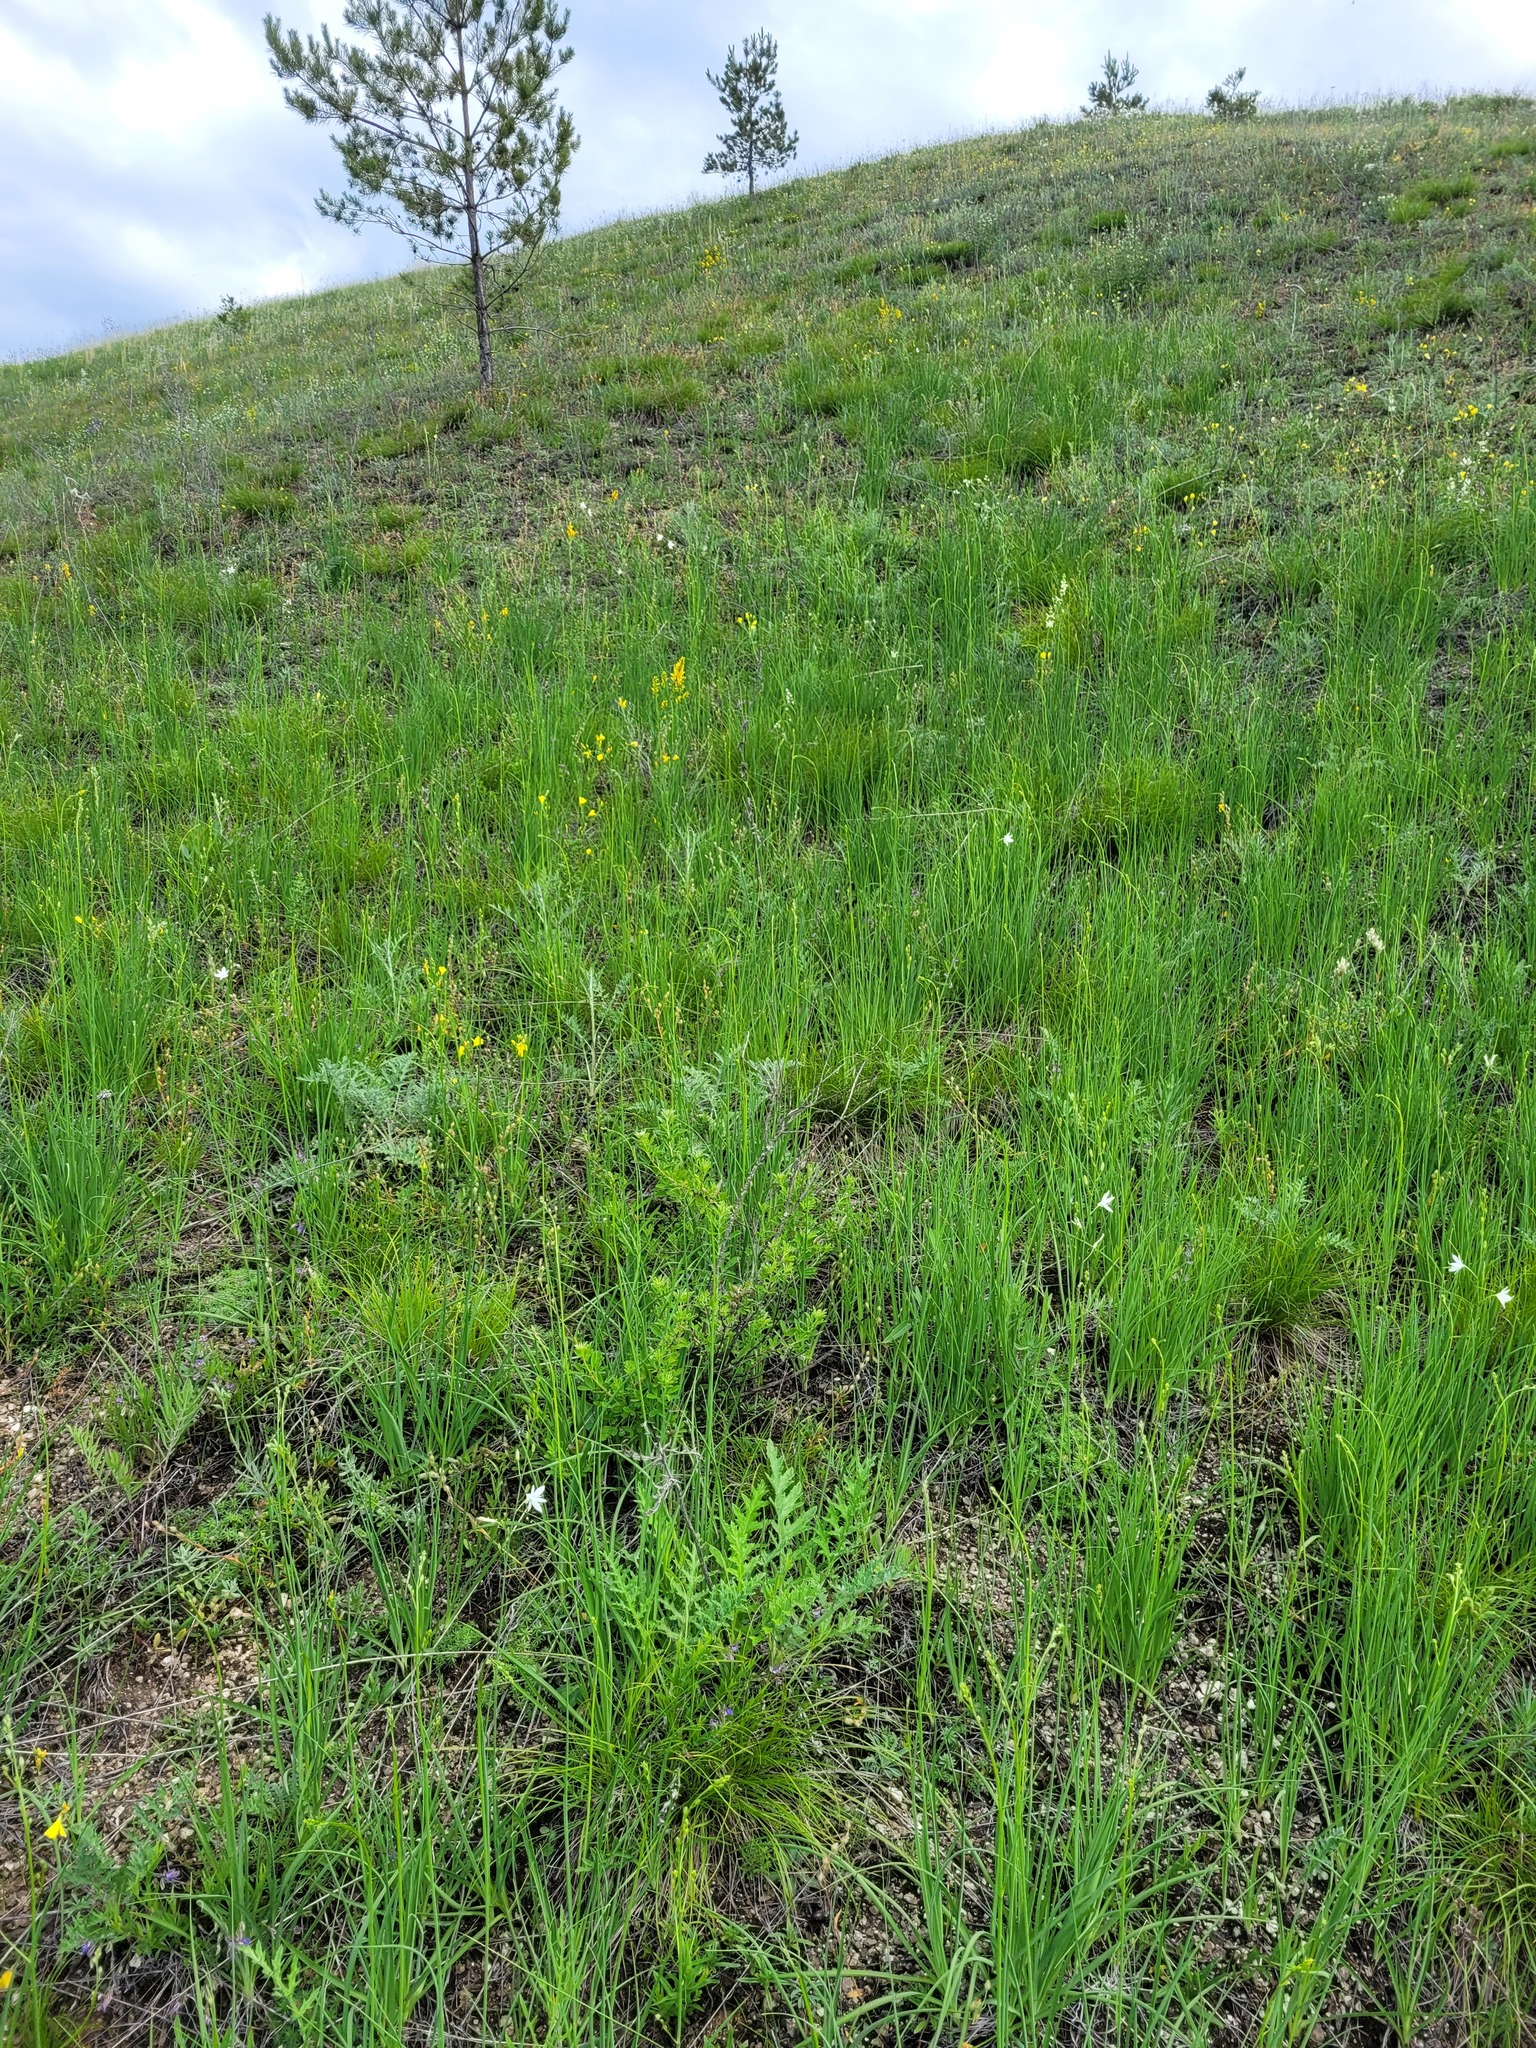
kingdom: Plantae
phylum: Tracheophyta
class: Liliopsida
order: Asparagales
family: Asparagaceae
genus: Anthericum
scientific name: Anthericum ramosum
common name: Branched st. bernard's-lily
